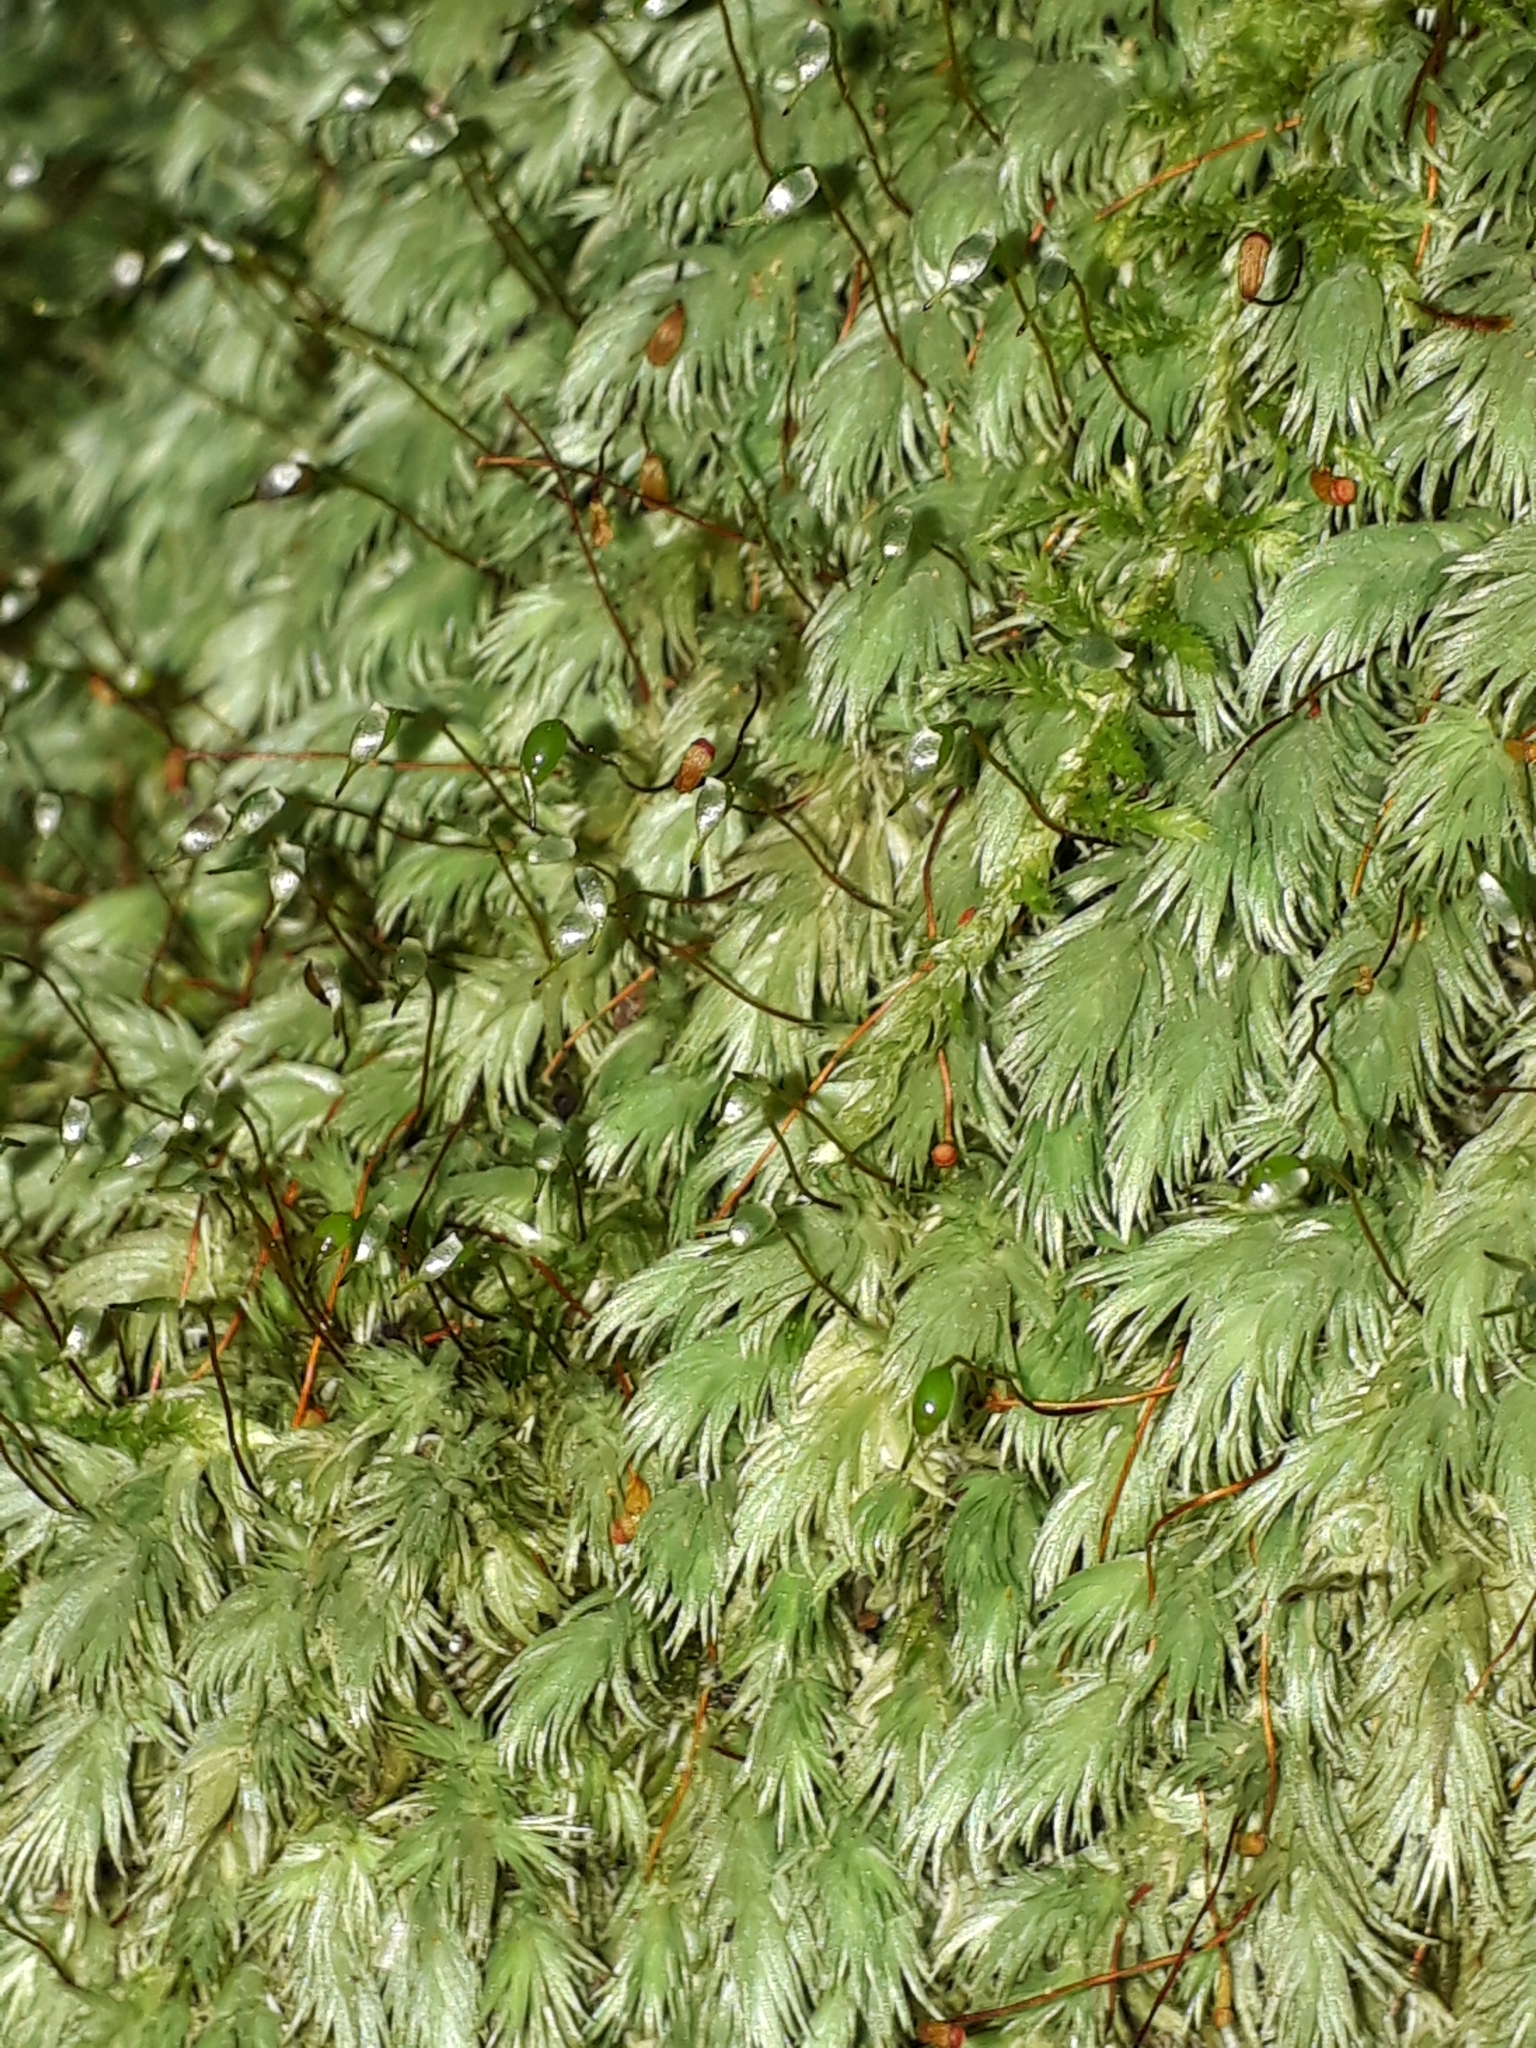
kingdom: Plantae
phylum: Bryophyta
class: Bryopsida
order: Dicranales
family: Leucobryaceae
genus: Leucobryum
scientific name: Leucobryum javense
